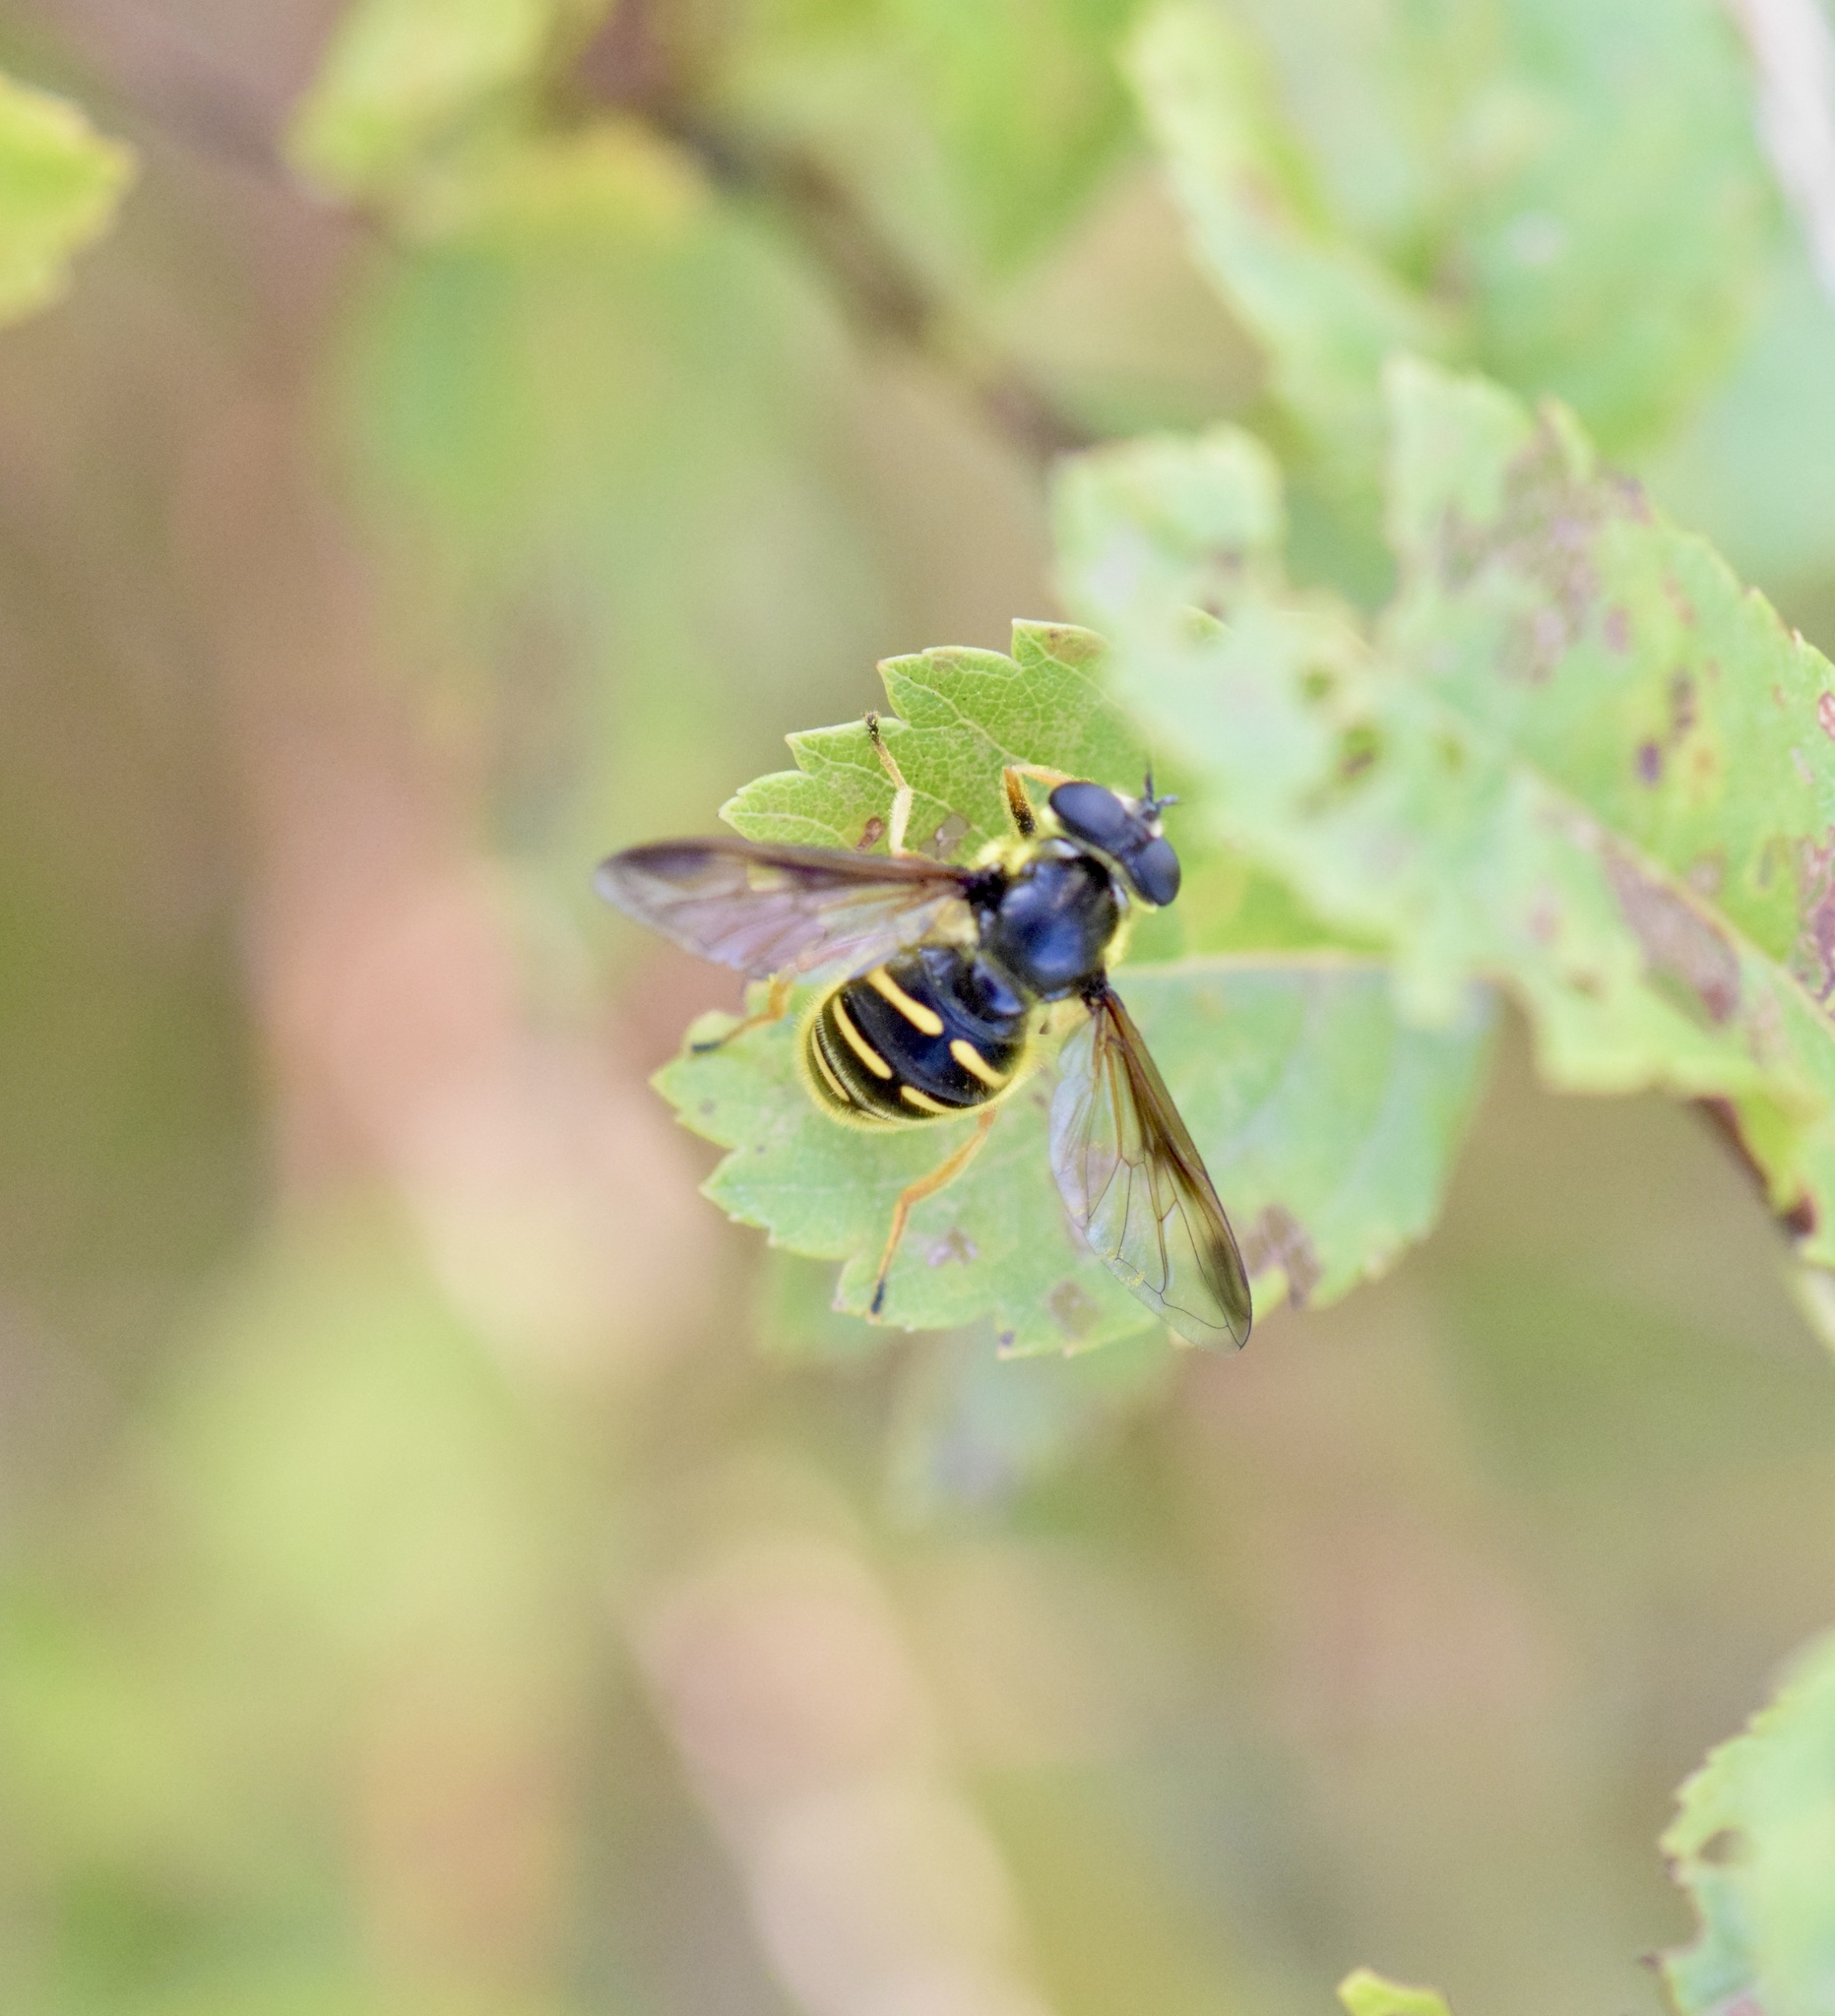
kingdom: Animalia
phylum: Arthropoda
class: Insecta
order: Diptera
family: Syrphidae
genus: Sericomyia
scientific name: Sericomyia chrysotoxoides
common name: Oblique-banded pond fly
